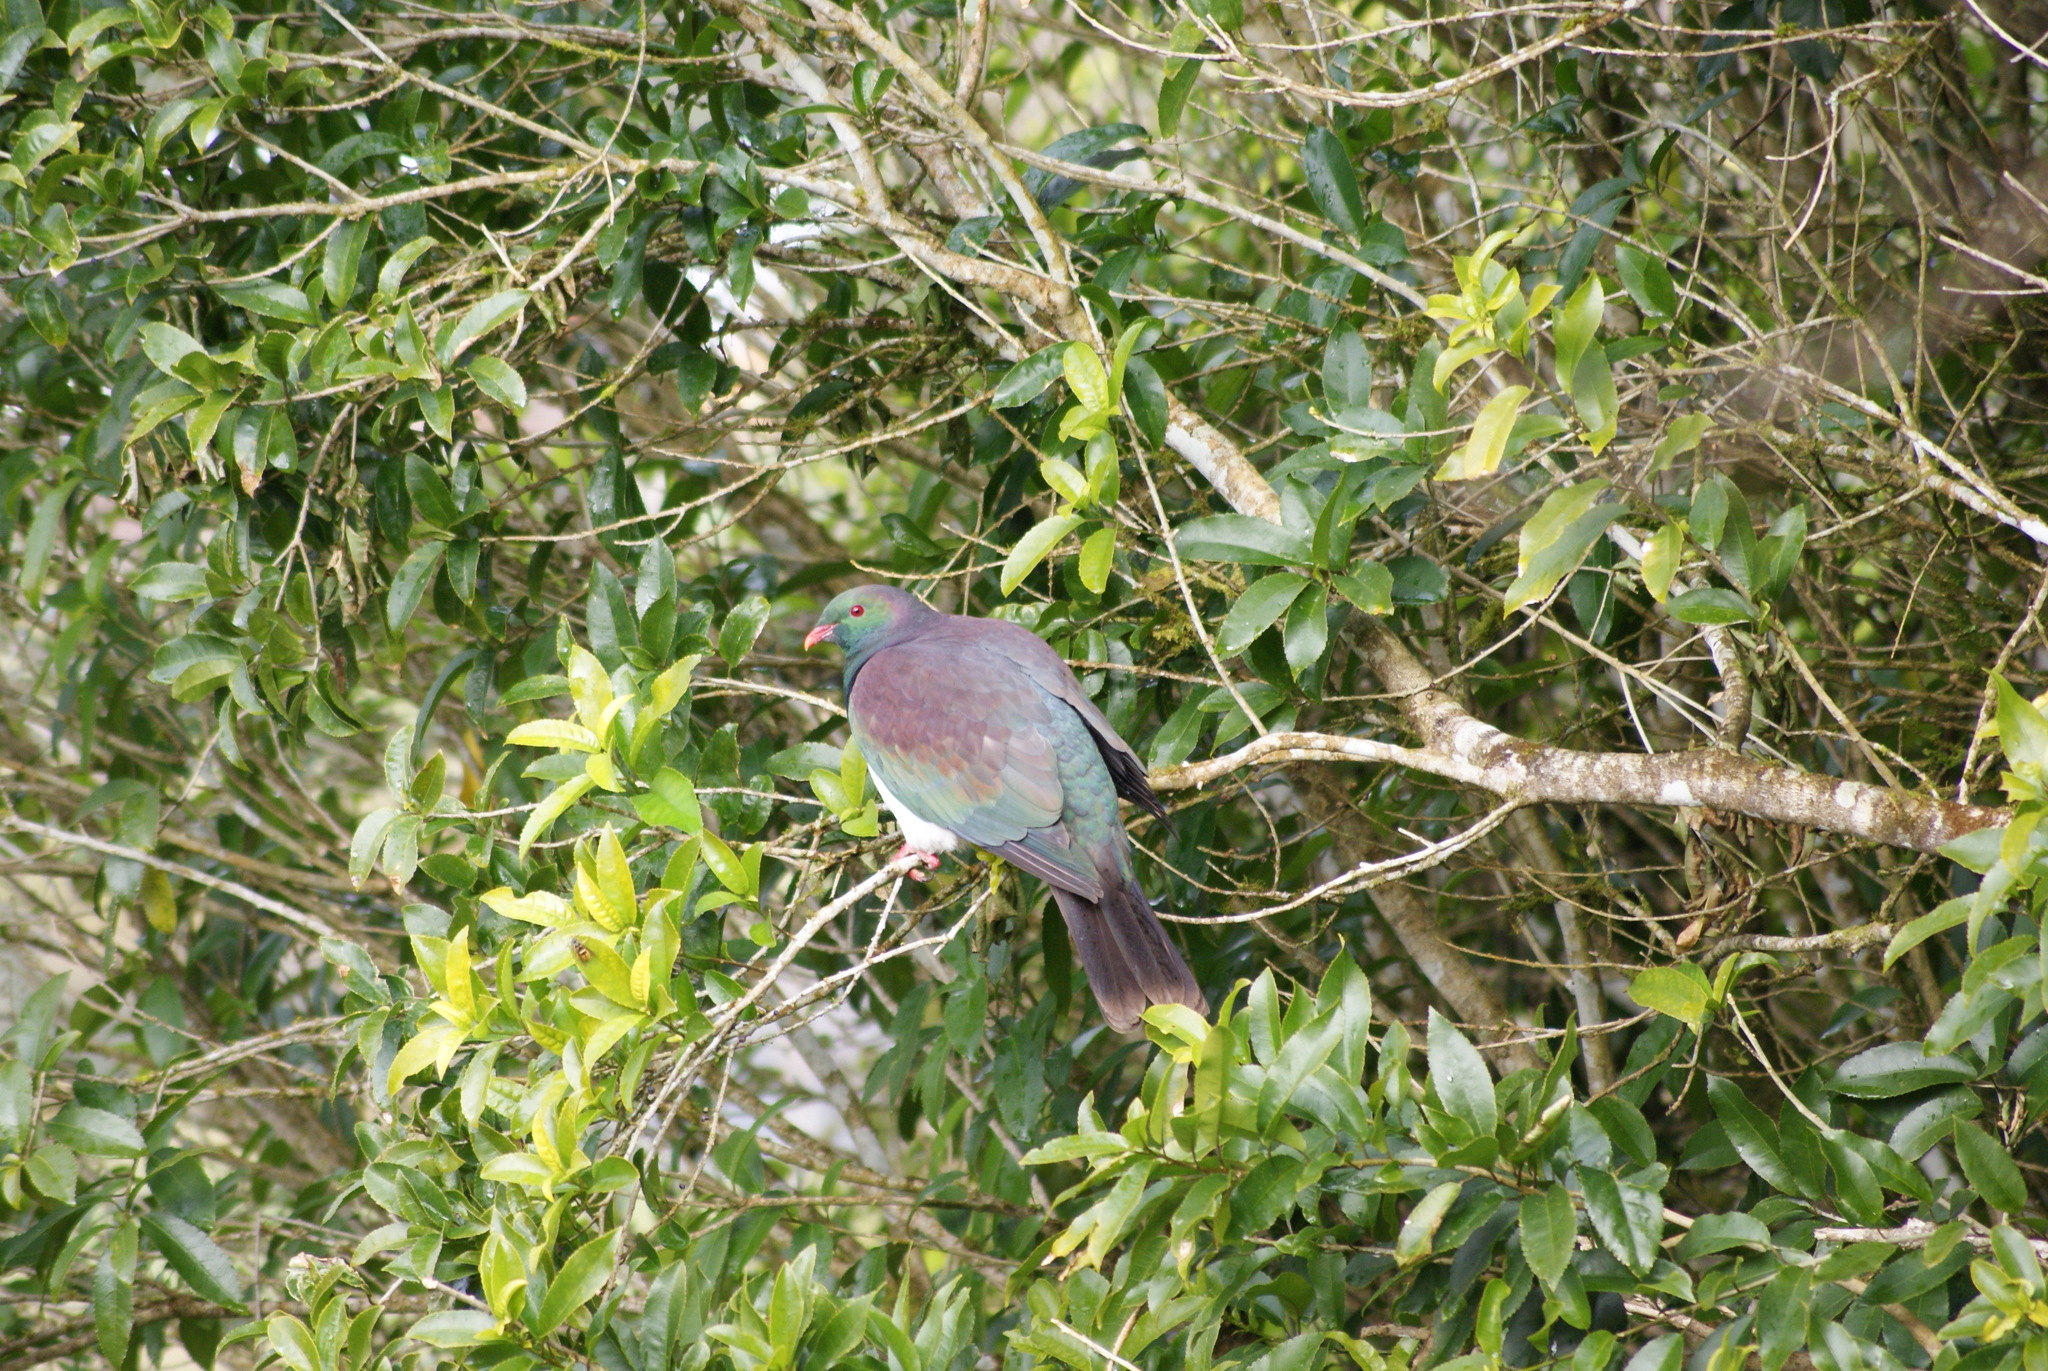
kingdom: Animalia
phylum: Chordata
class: Aves
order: Columbiformes
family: Columbidae
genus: Hemiphaga
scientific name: Hemiphaga novaeseelandiae
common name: New zealand pigeon
